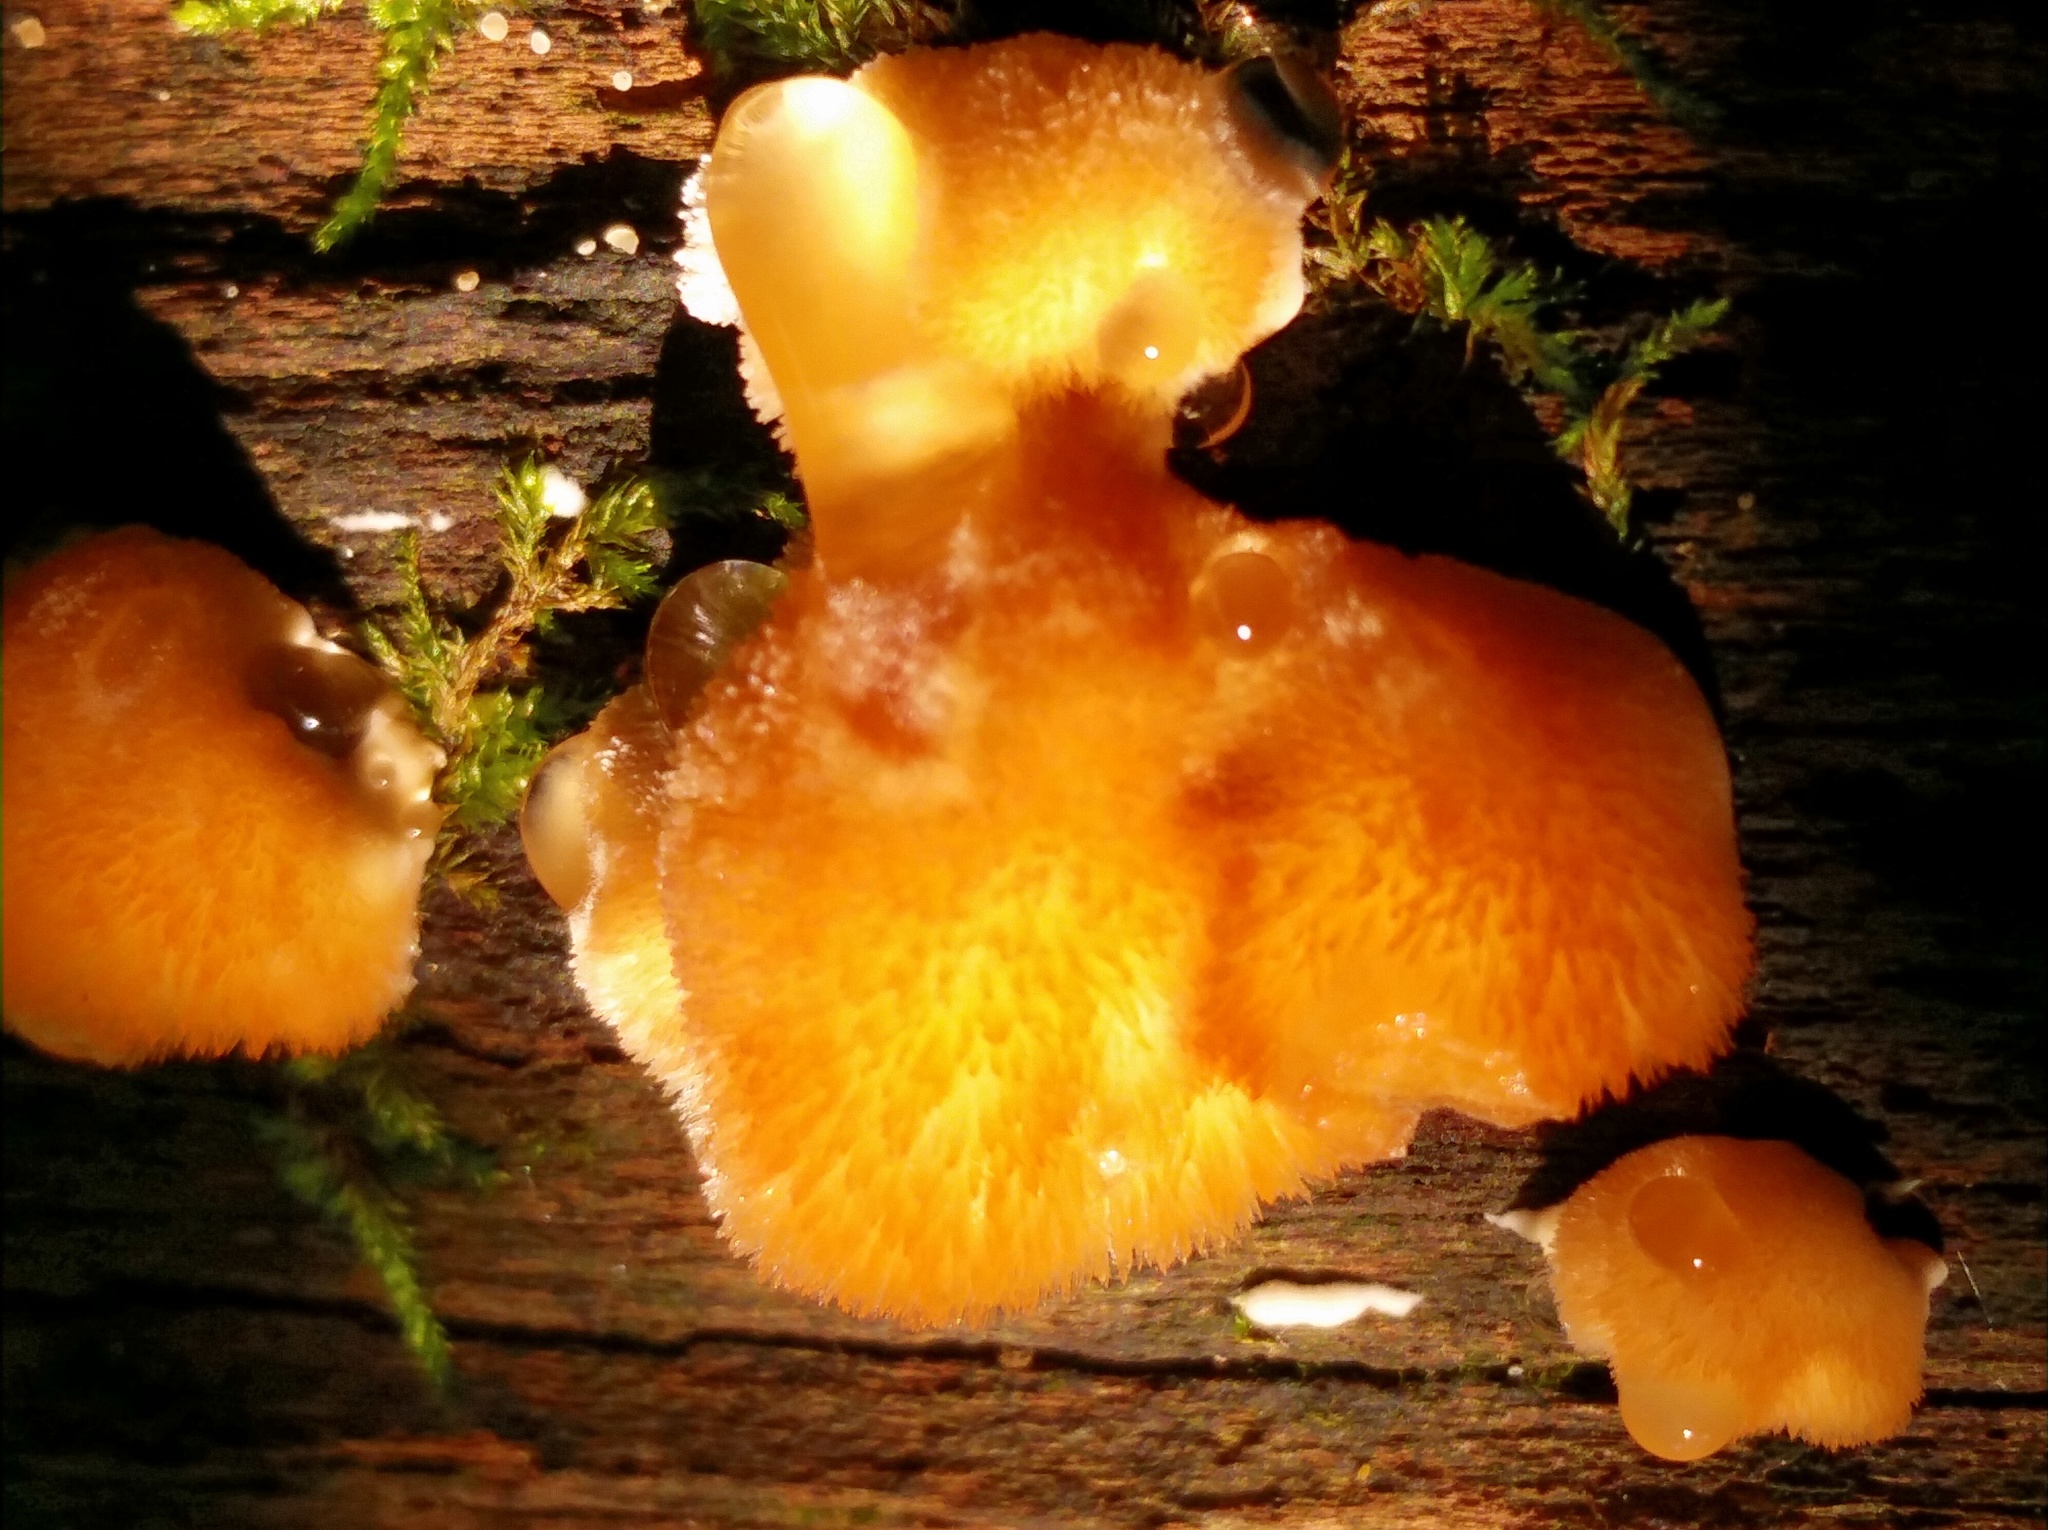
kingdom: Fungi
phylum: Basidiomycota
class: Agaricomycetes
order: Polyporales
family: Dacryobolaceae
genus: Postia
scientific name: Postia ptychogaster
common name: Powderpuff bracket
